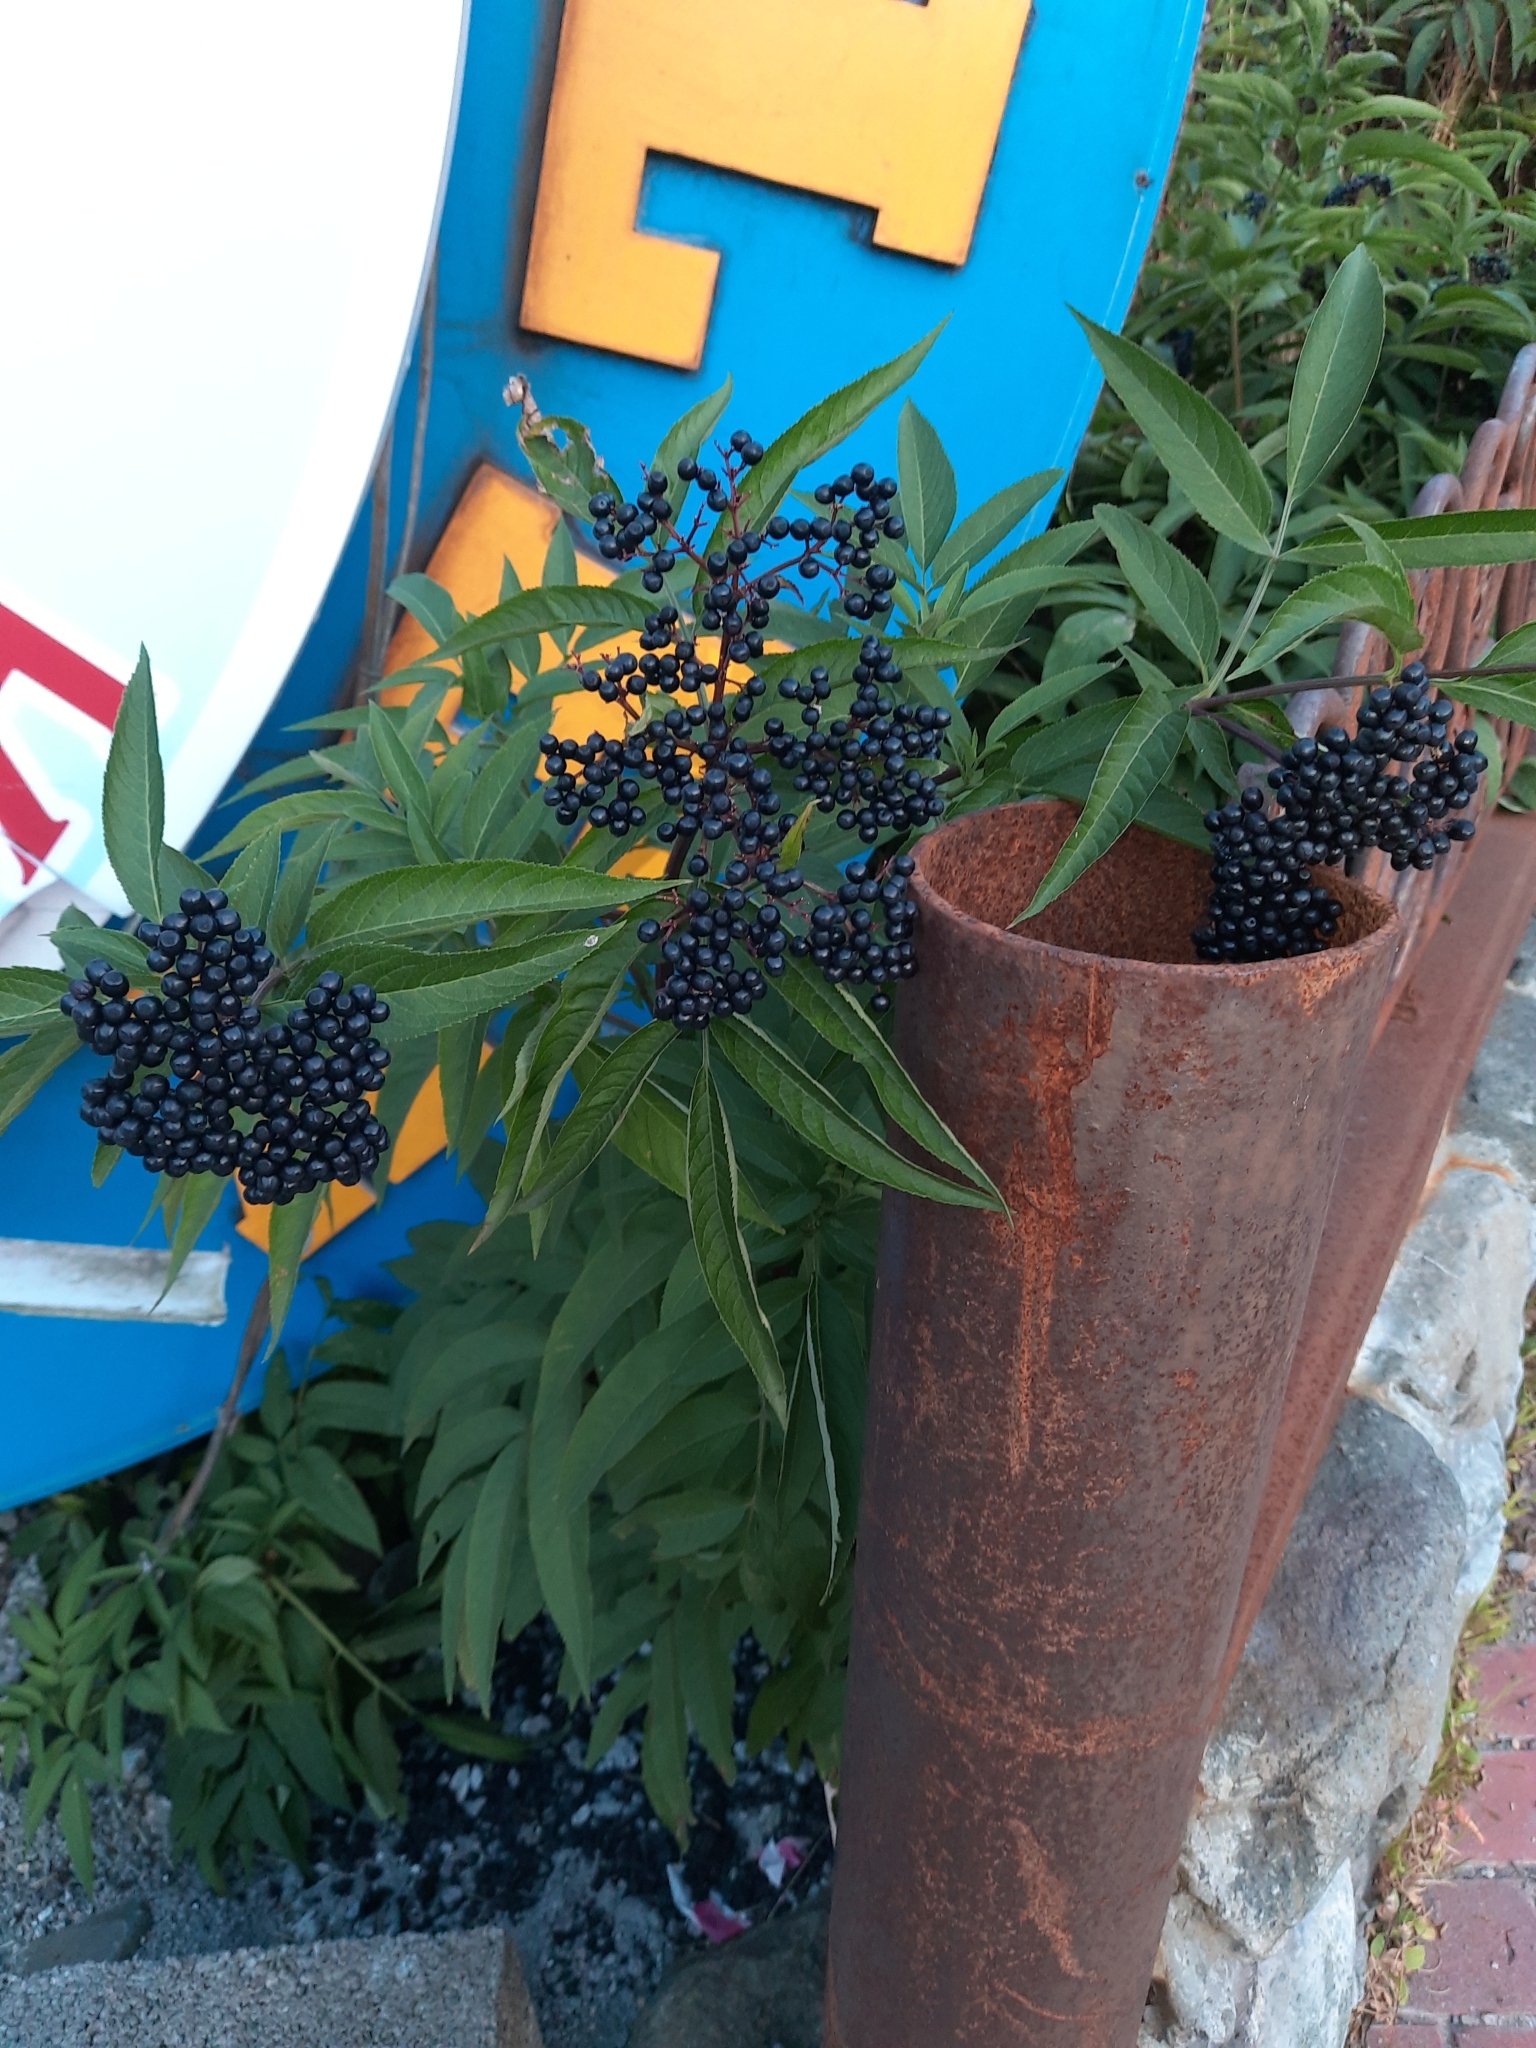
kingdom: Plantae
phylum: Tracheophyta
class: Magnoliopsida
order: Dipsacales
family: Viburnaceae
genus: Sambucus
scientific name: Sambucus ebulus
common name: Dwarf elder
